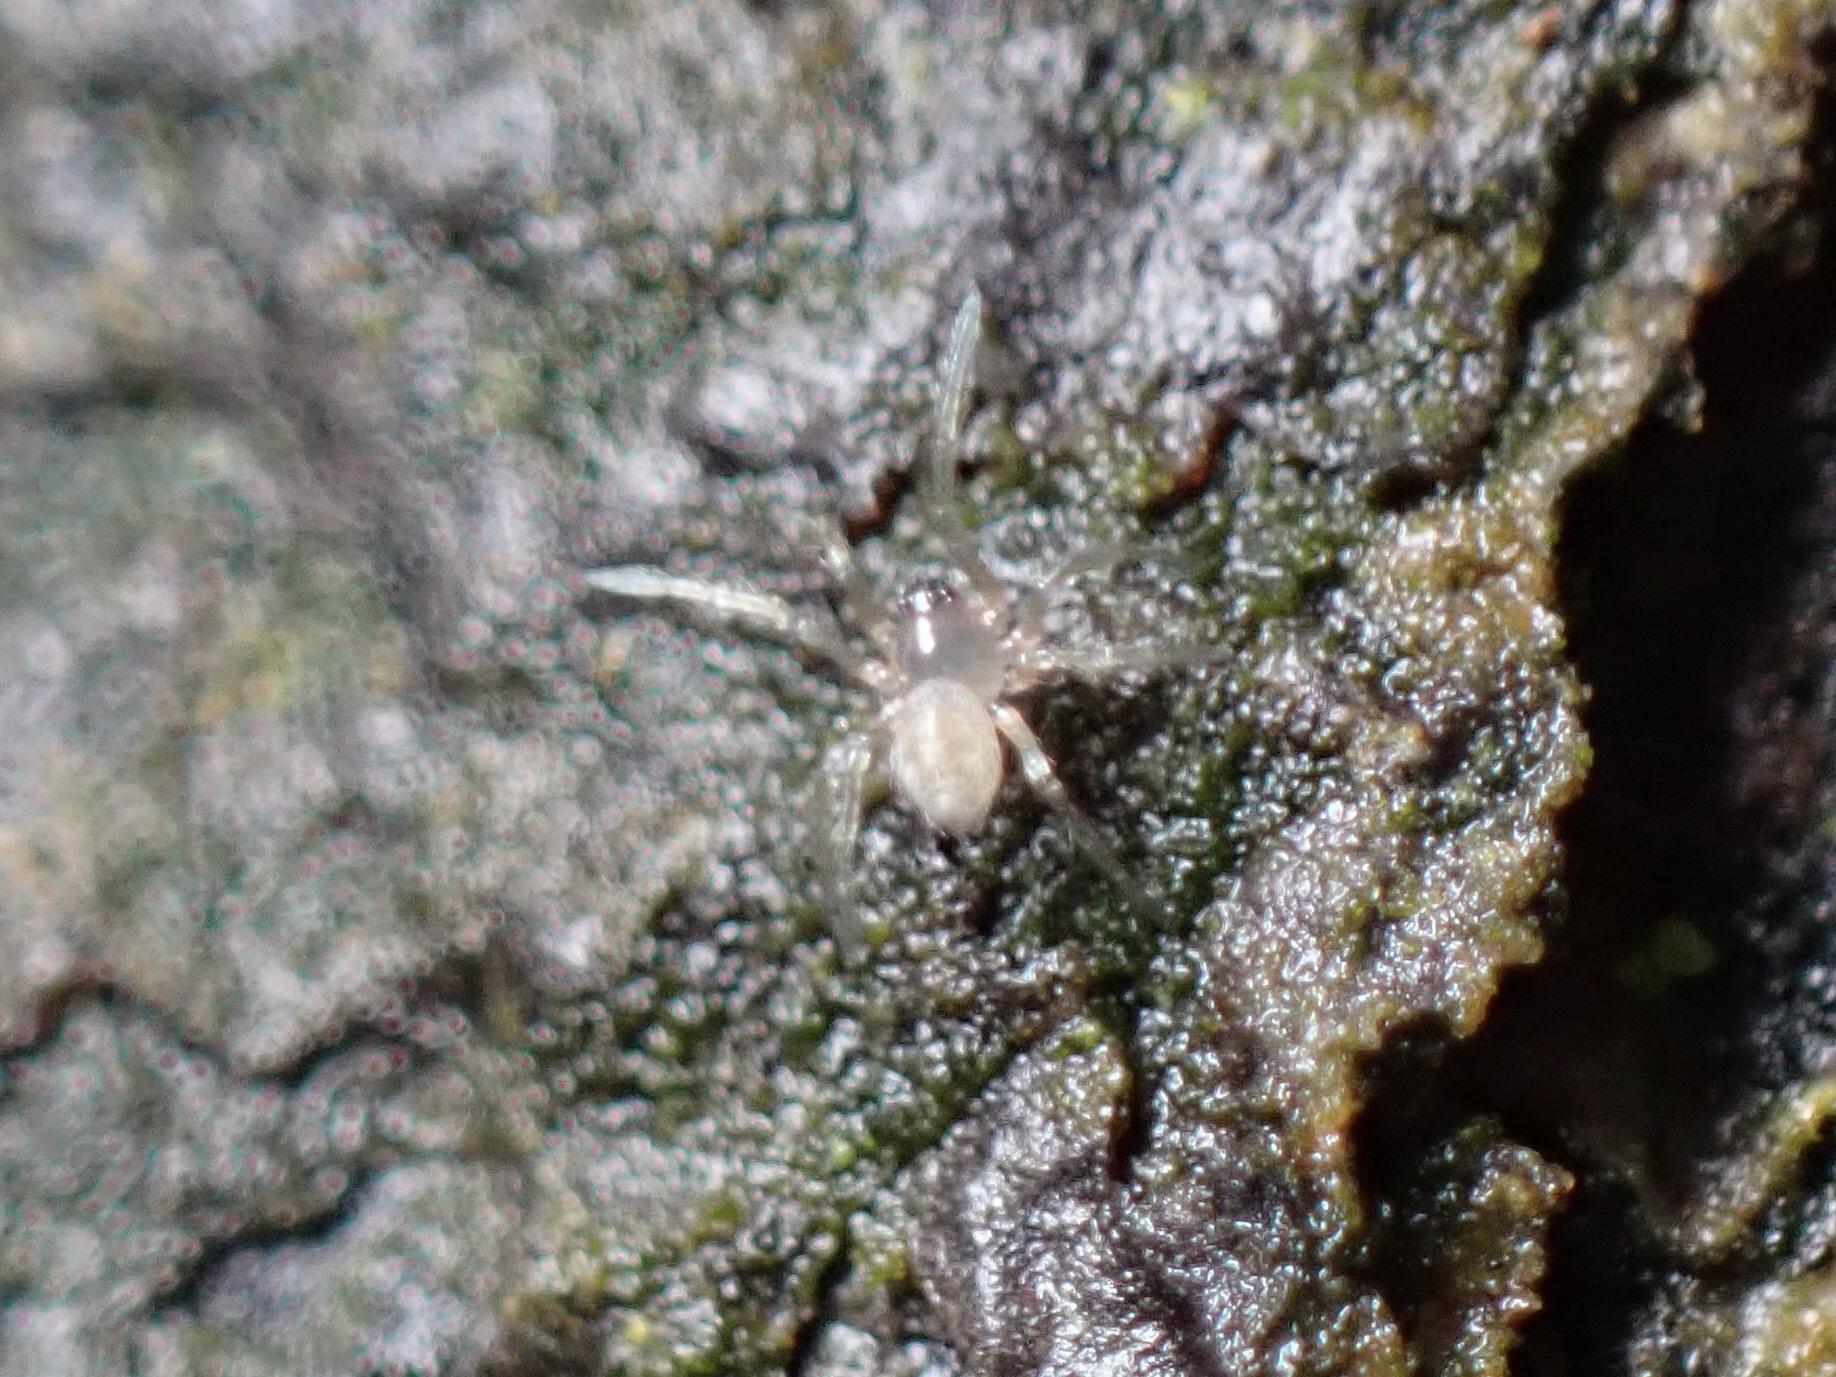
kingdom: Animalia
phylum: Arthropoda
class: Arachnida
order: Araneae
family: Anyphaenidae
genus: Wulfila
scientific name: Wulfila saltabundus
